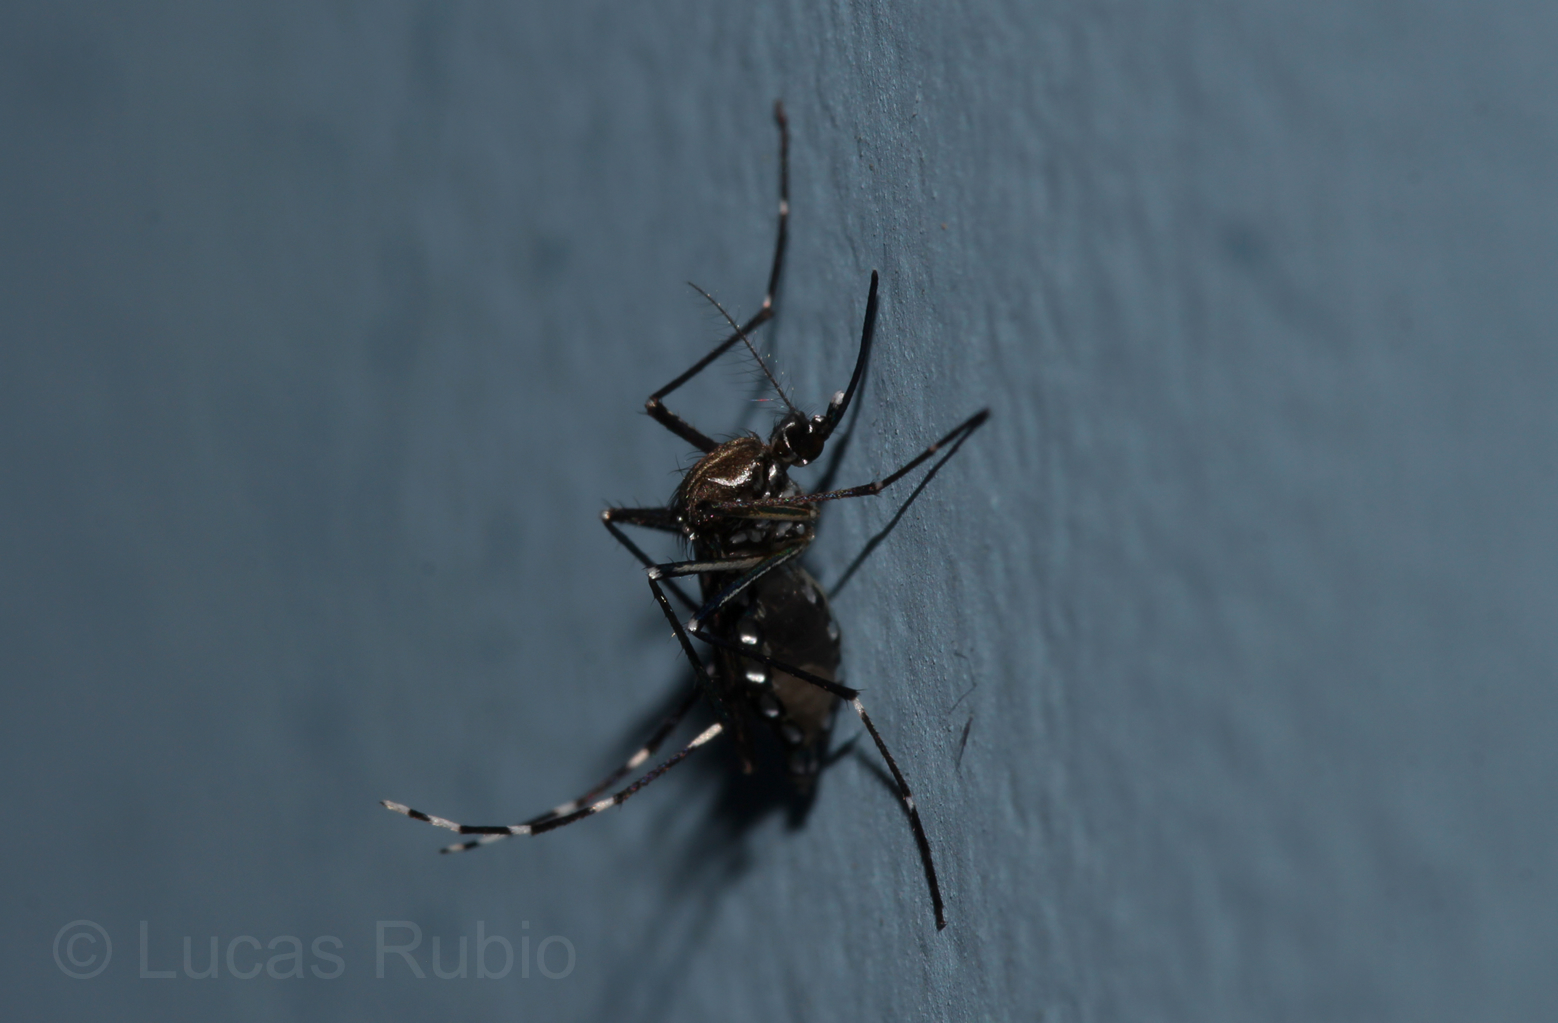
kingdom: Animalia
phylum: Arthropoda
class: Insecta
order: Diptera
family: Culicidae
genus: Aedes
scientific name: Aedes aegypti
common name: Yellow fever mosquito
